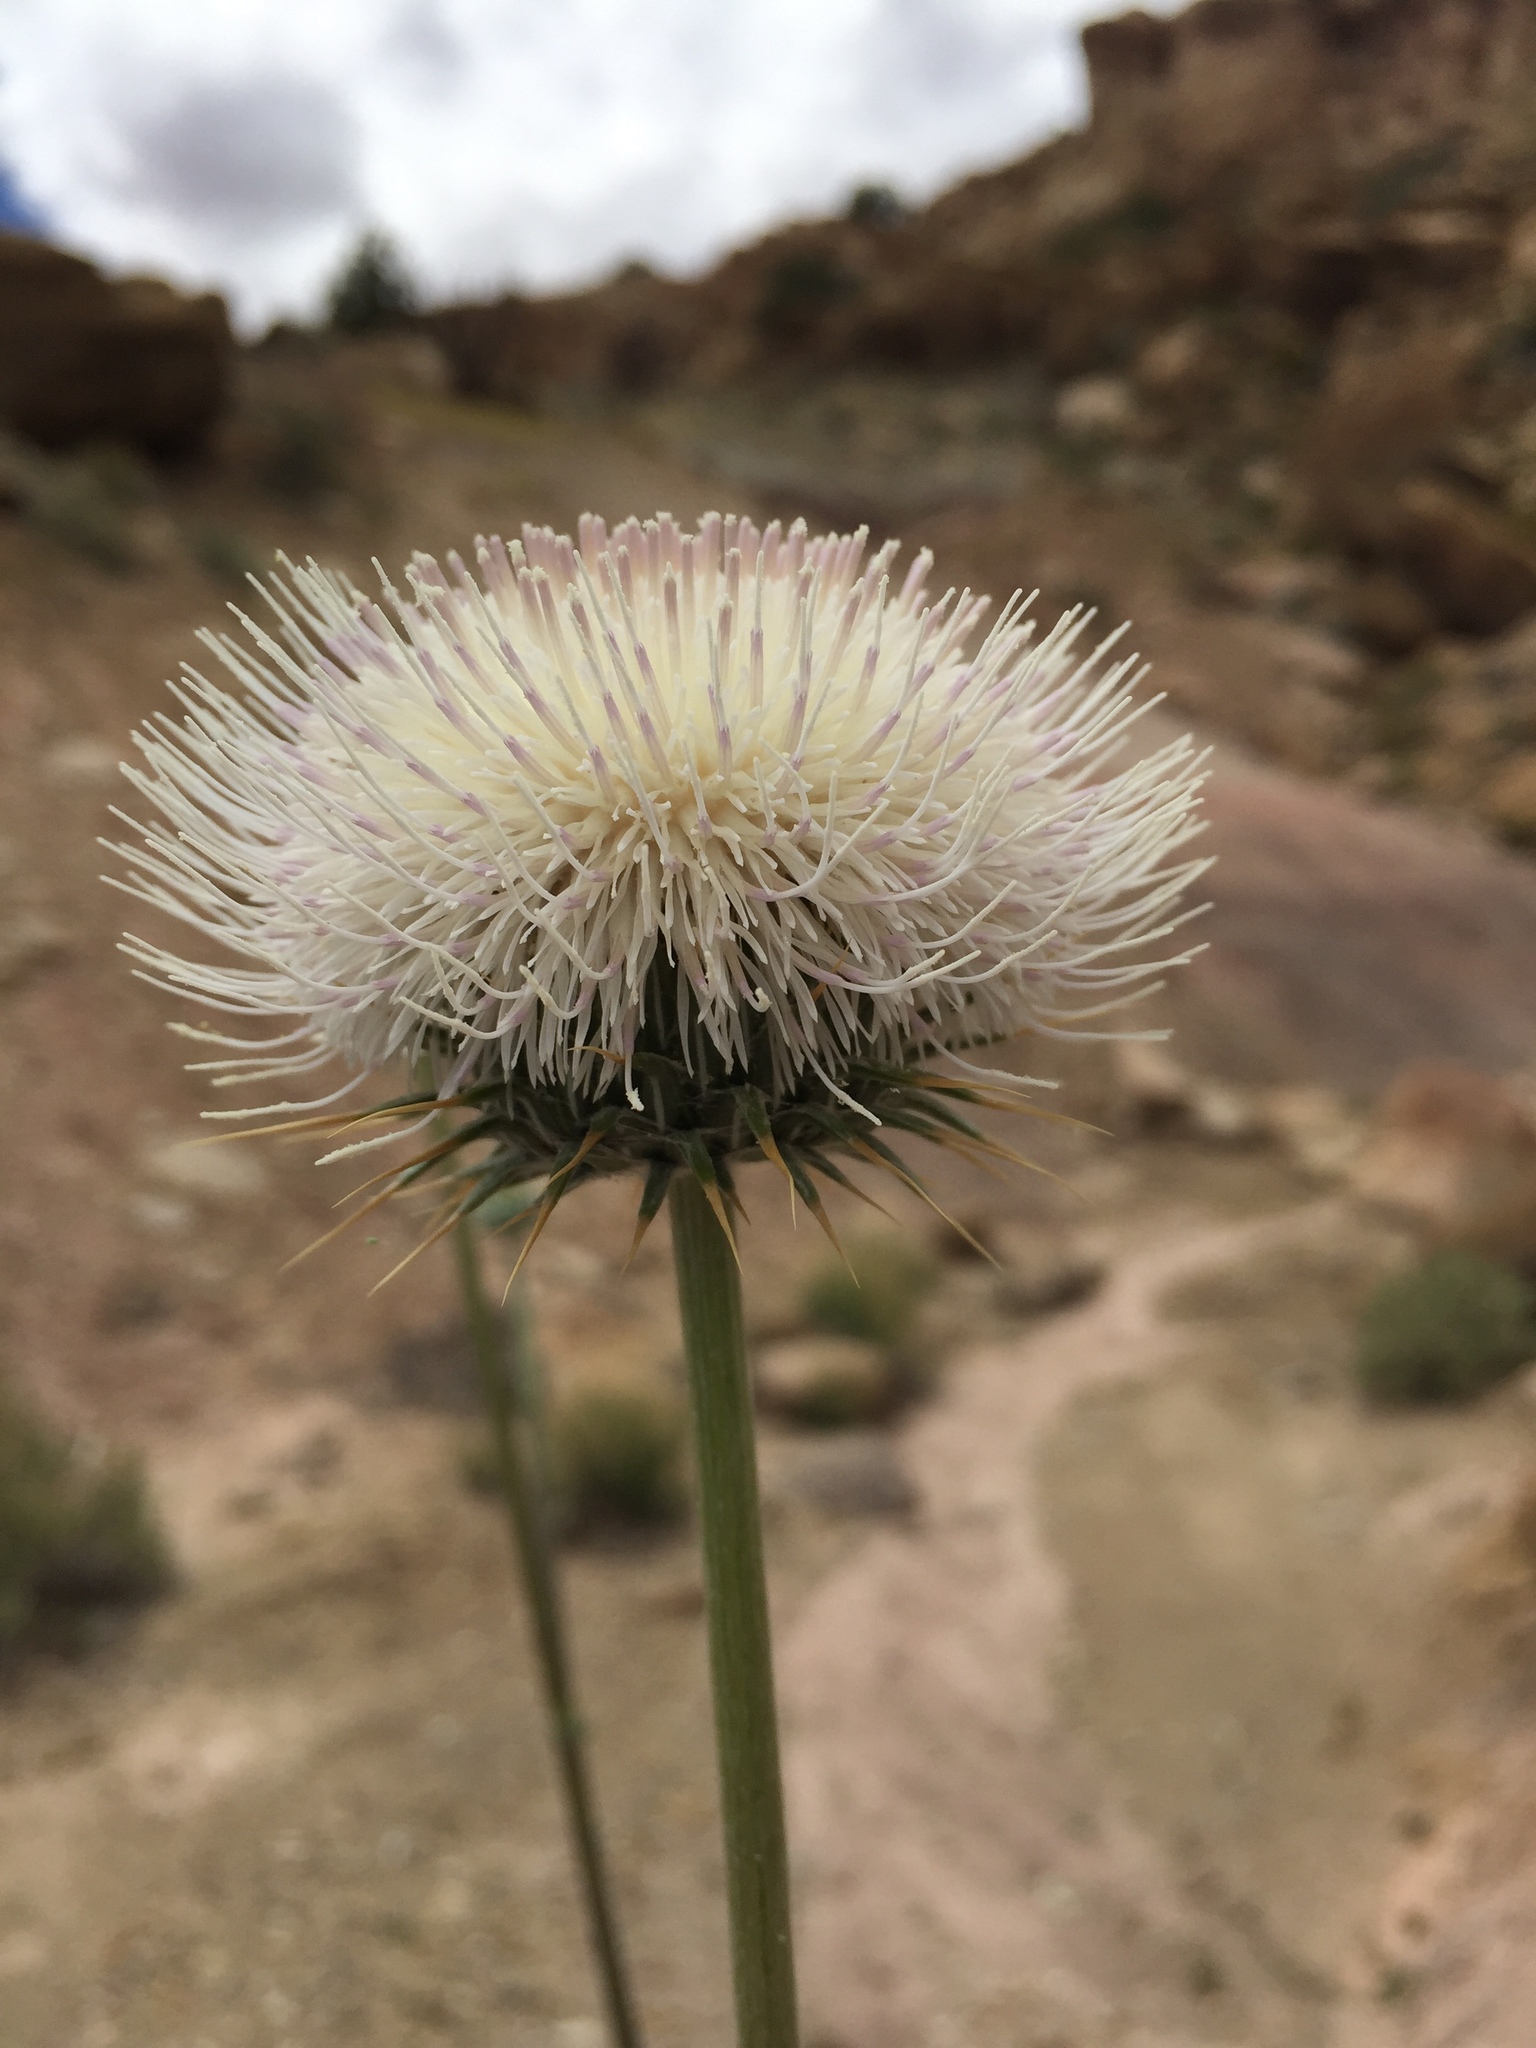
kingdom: Plantae
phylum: Tracheophyta
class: Magnoliopsida
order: Asterales
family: Asteraceae
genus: Cirsium
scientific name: Cirsium neomexicanum
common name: New mexico thistle
